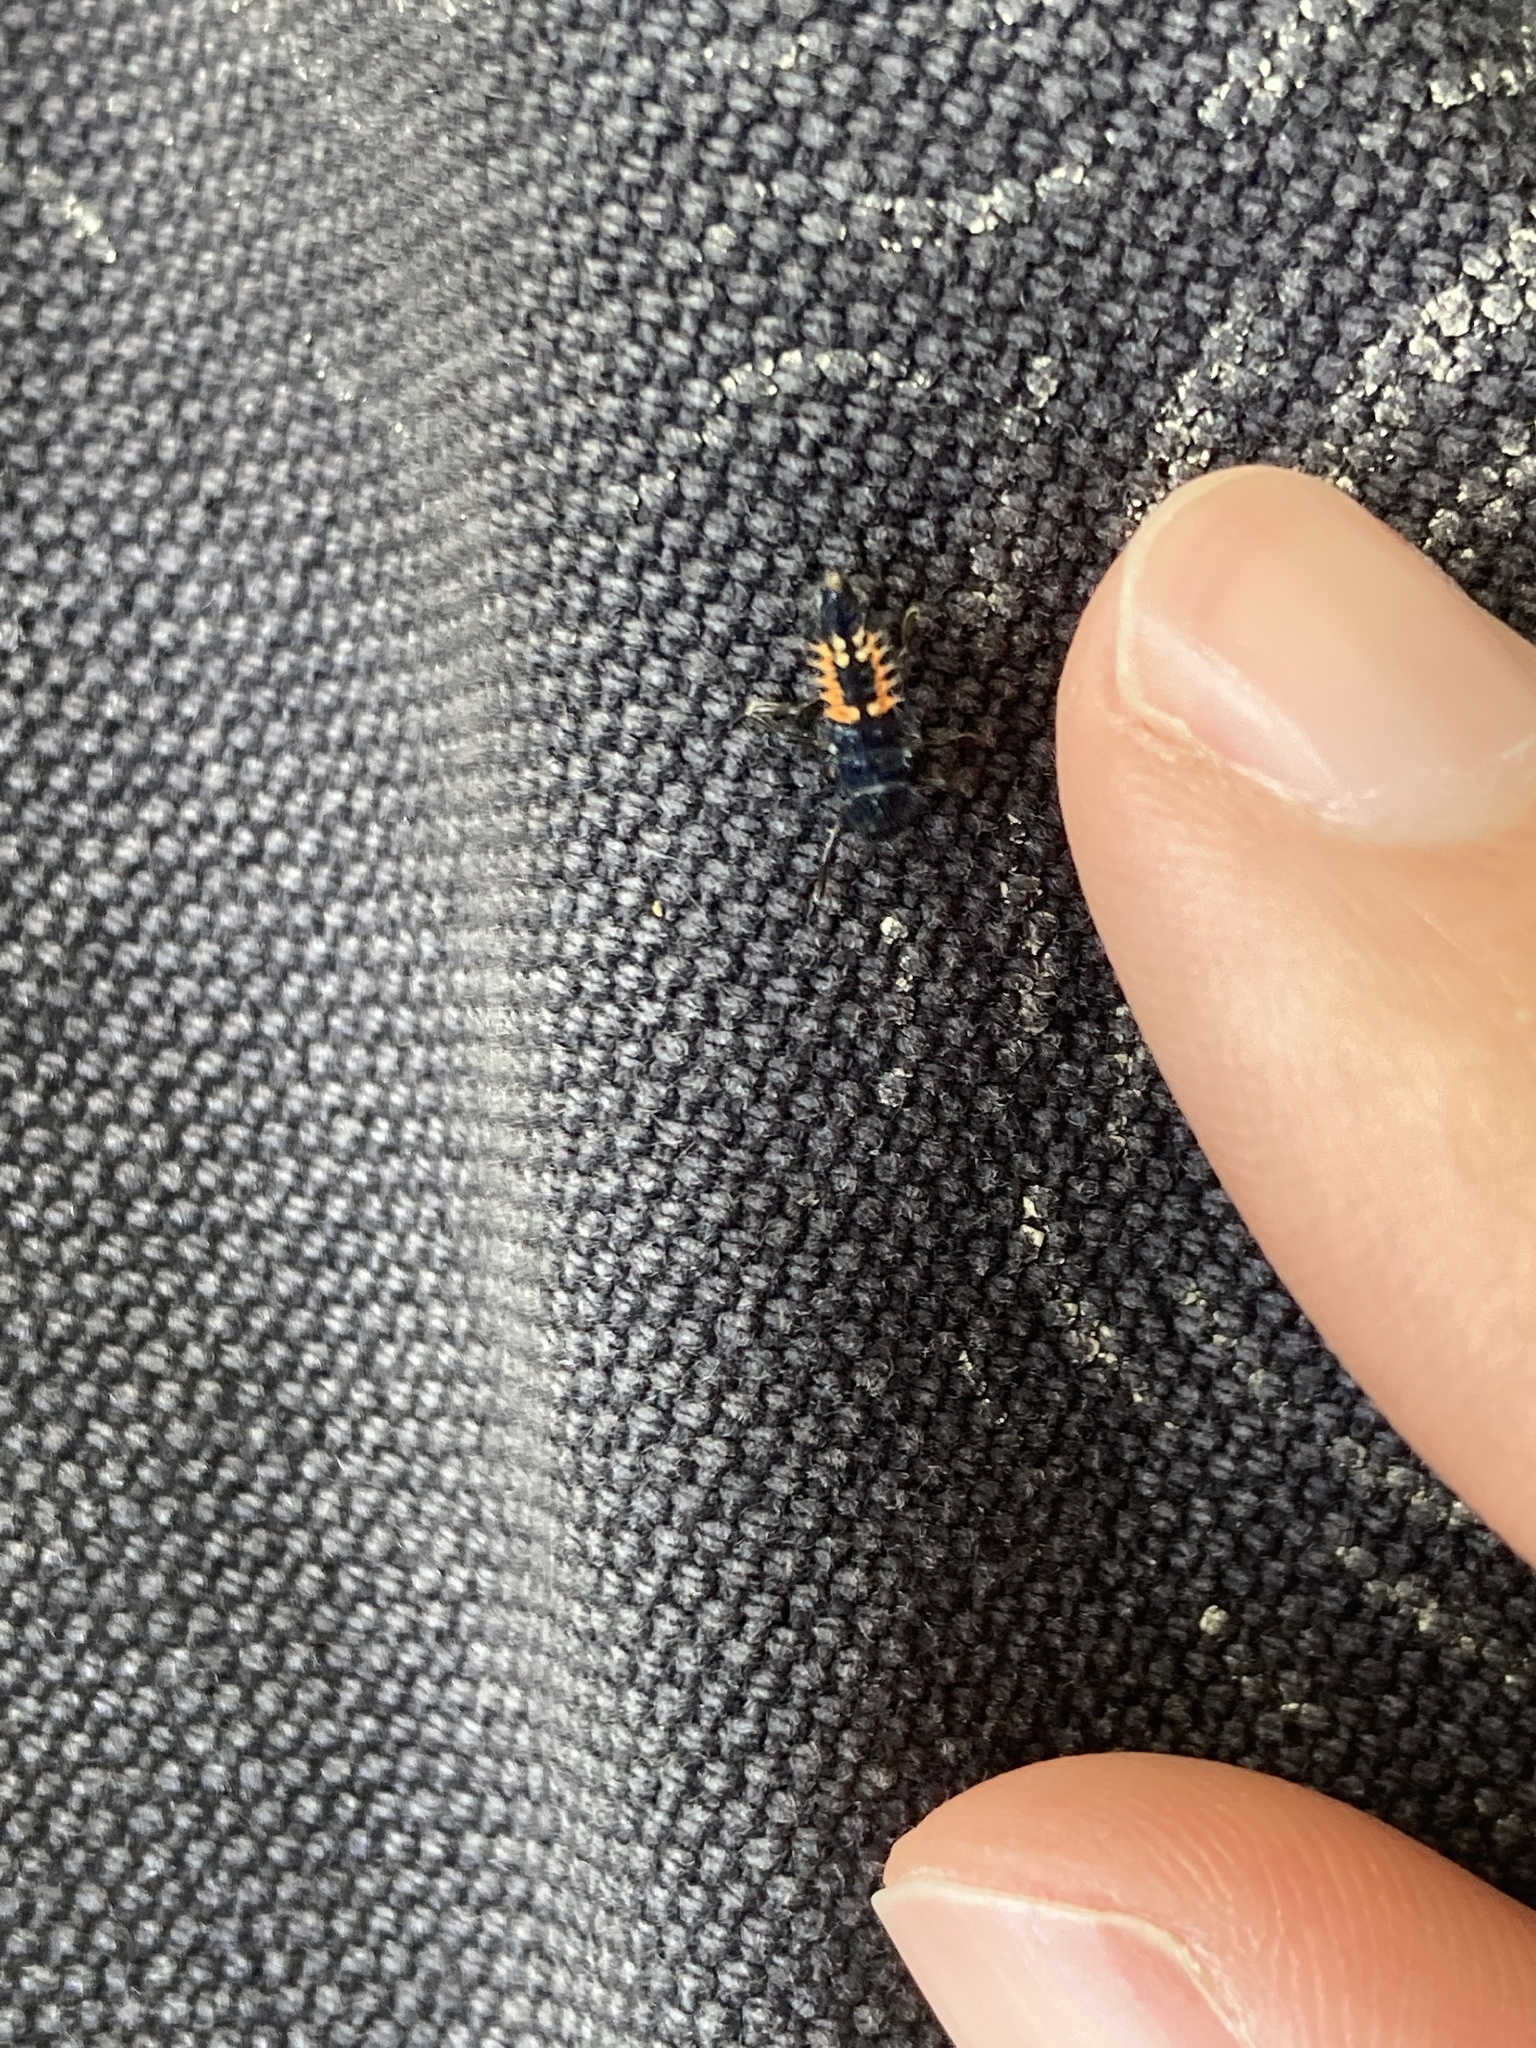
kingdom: Animalia
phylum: Arthropoda
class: Insecta
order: Coleoptera
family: Coccinellidae
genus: Harmonia
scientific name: Harmonia axyridis
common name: Harlequin ladybird
